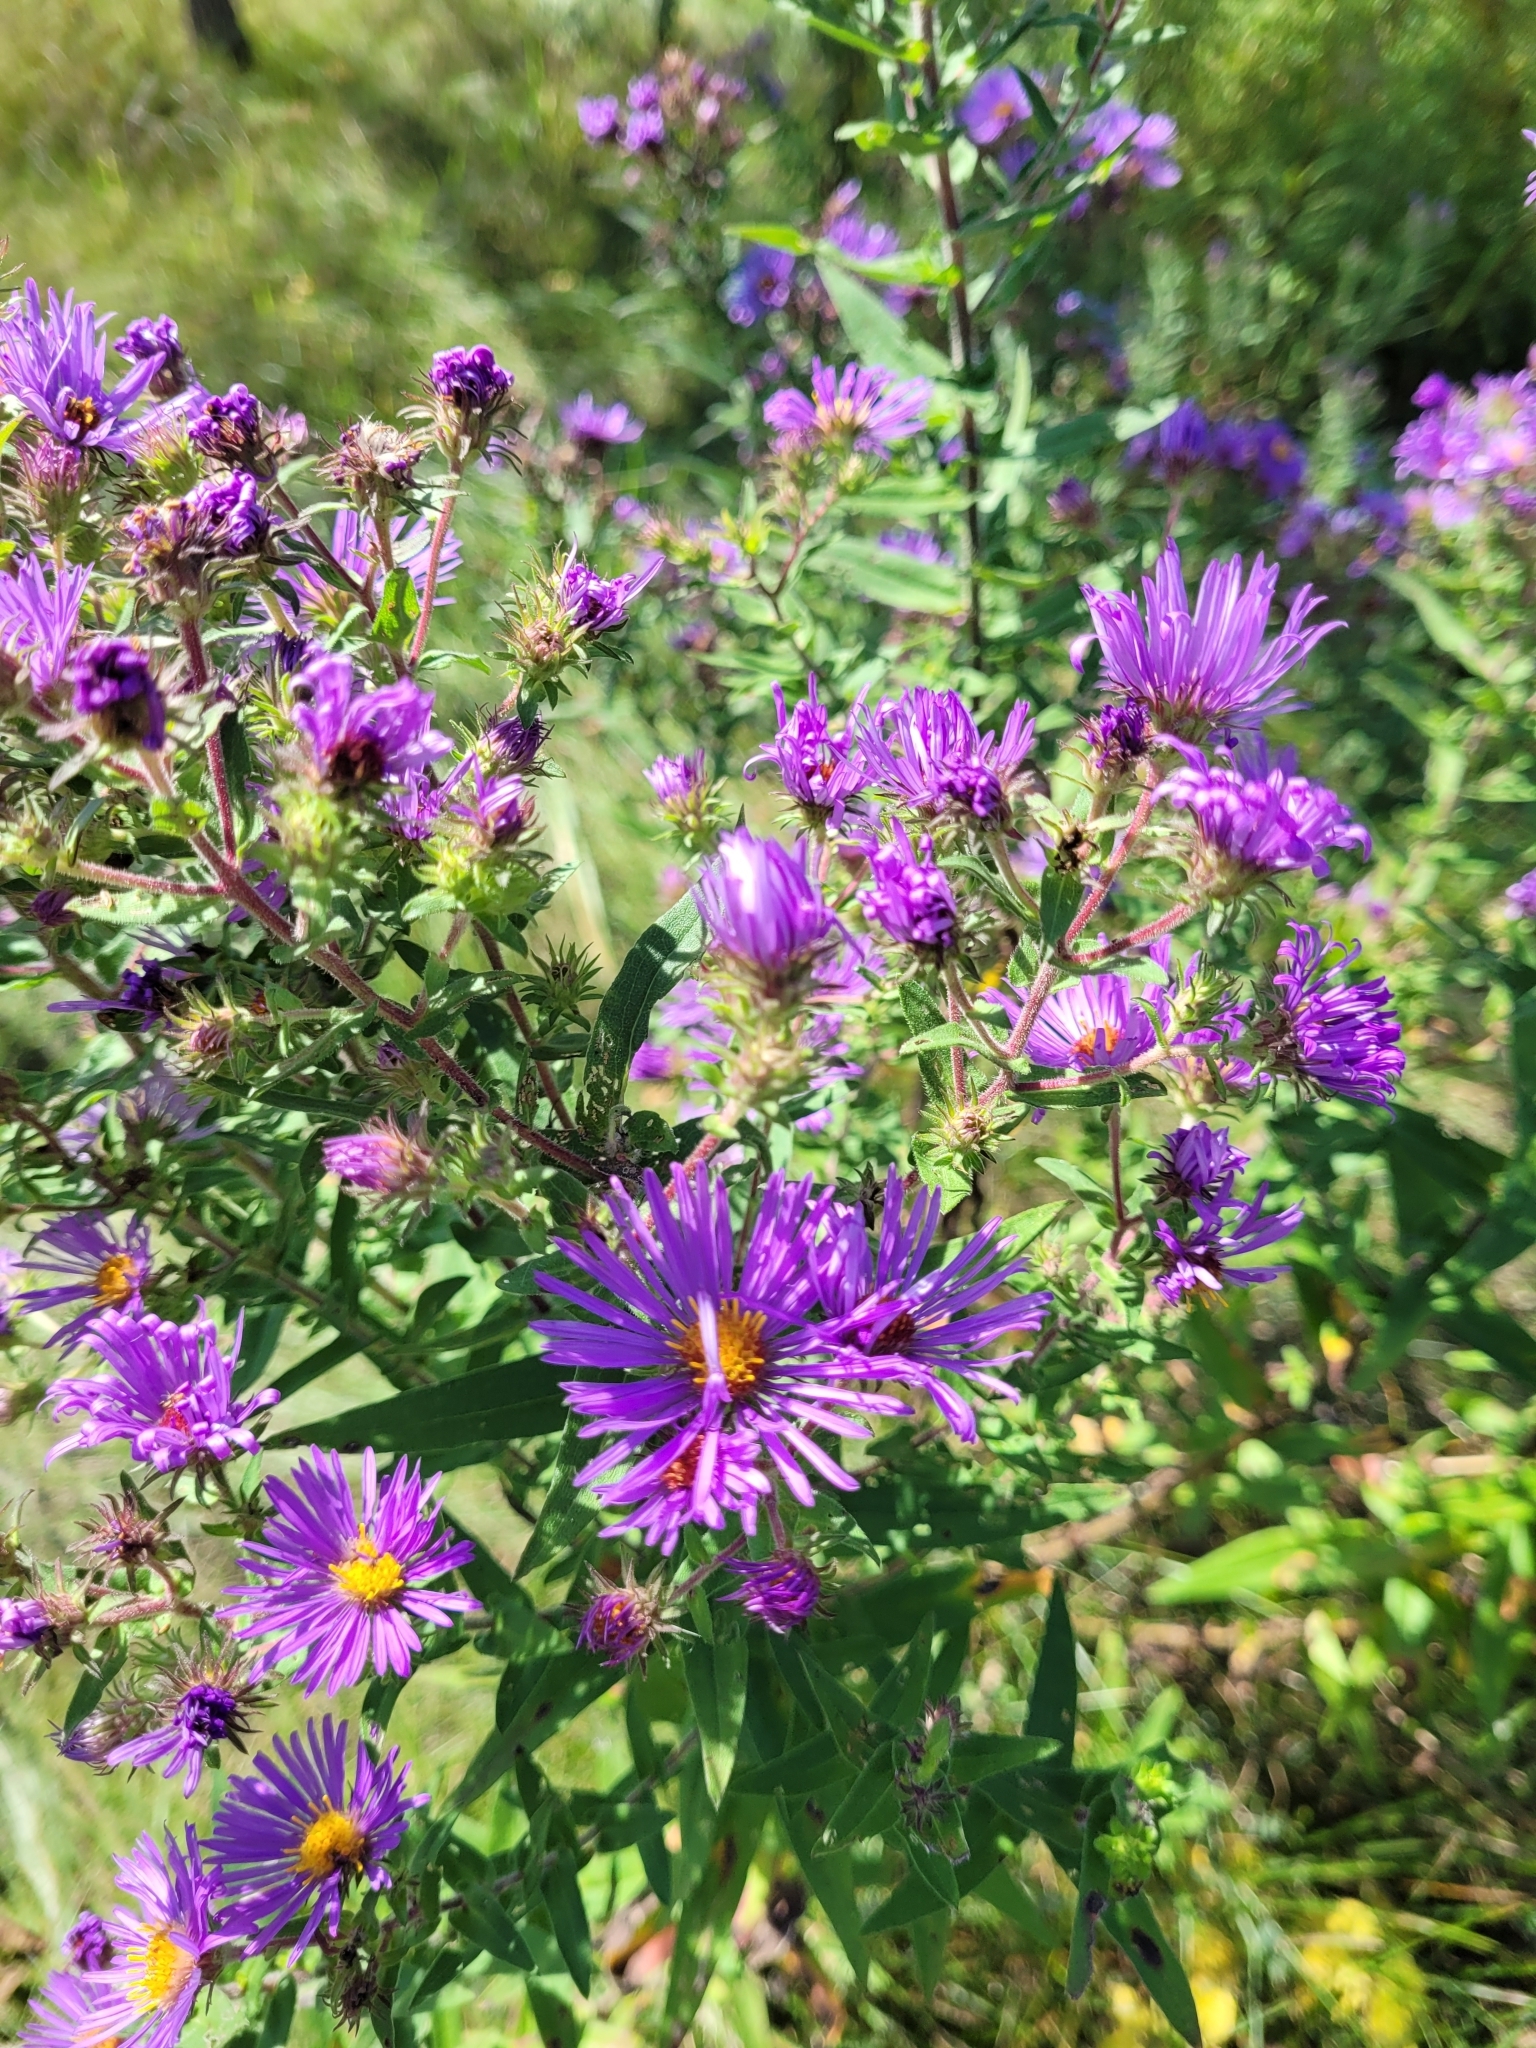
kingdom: Plantae
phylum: Tracheophyta
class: Magnoliopsida
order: Asterales
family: Asteraceae
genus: Symphyotrichum
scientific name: Symphyotrichum novae-angliae
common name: Michaelmas daisy
